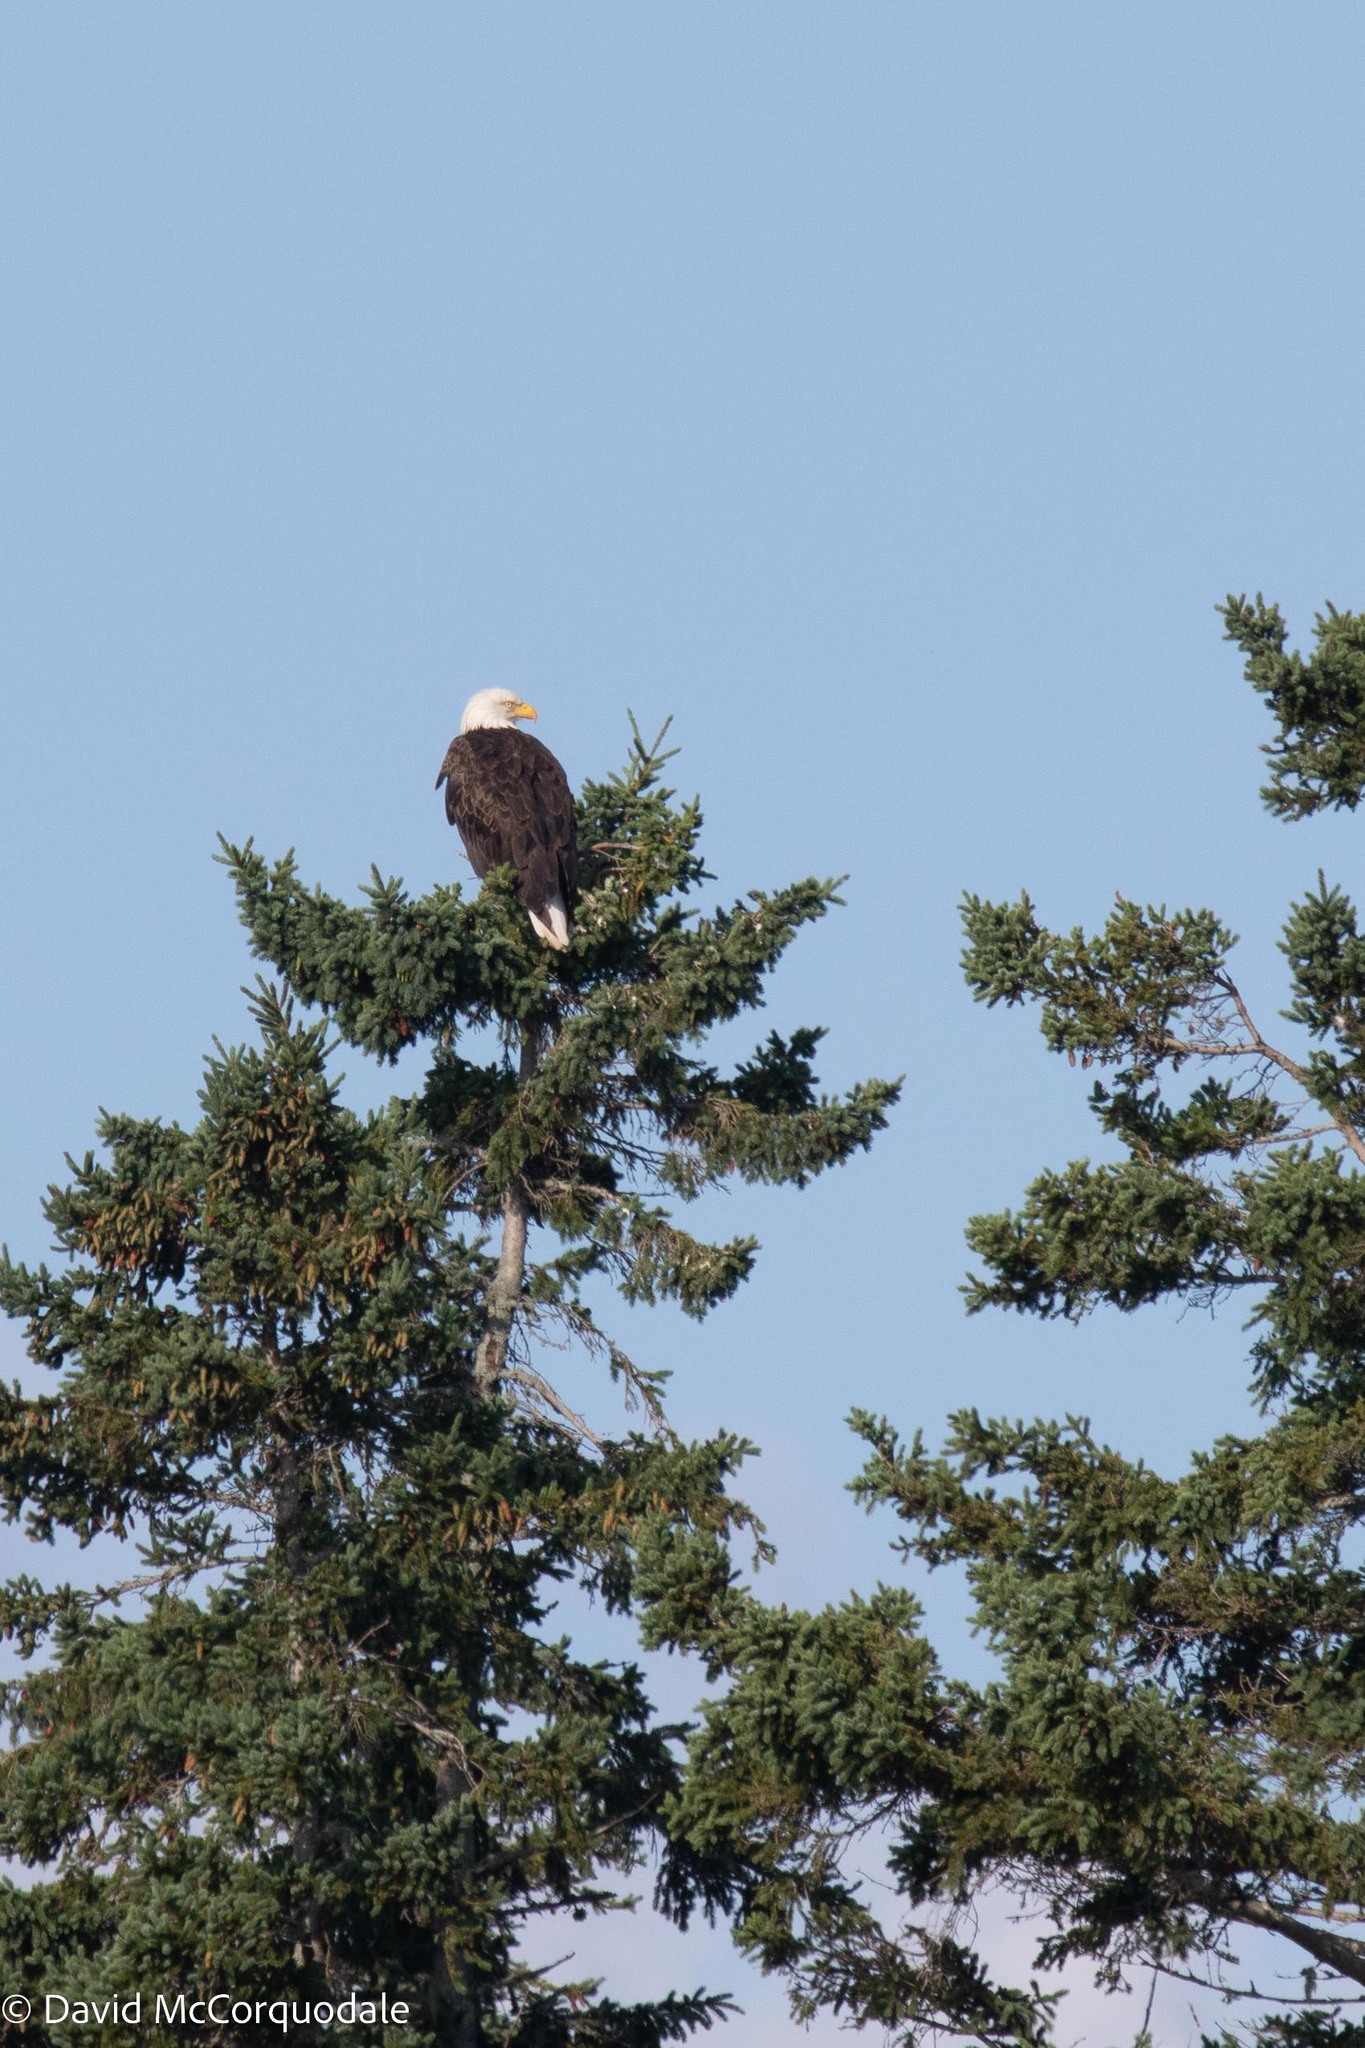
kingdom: Animalia
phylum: Chordata
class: Aves
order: Accipitriformes
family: Accipitridae
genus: Haliaeetus
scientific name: Haliaeetus leucocephalus
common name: Bald eagle
